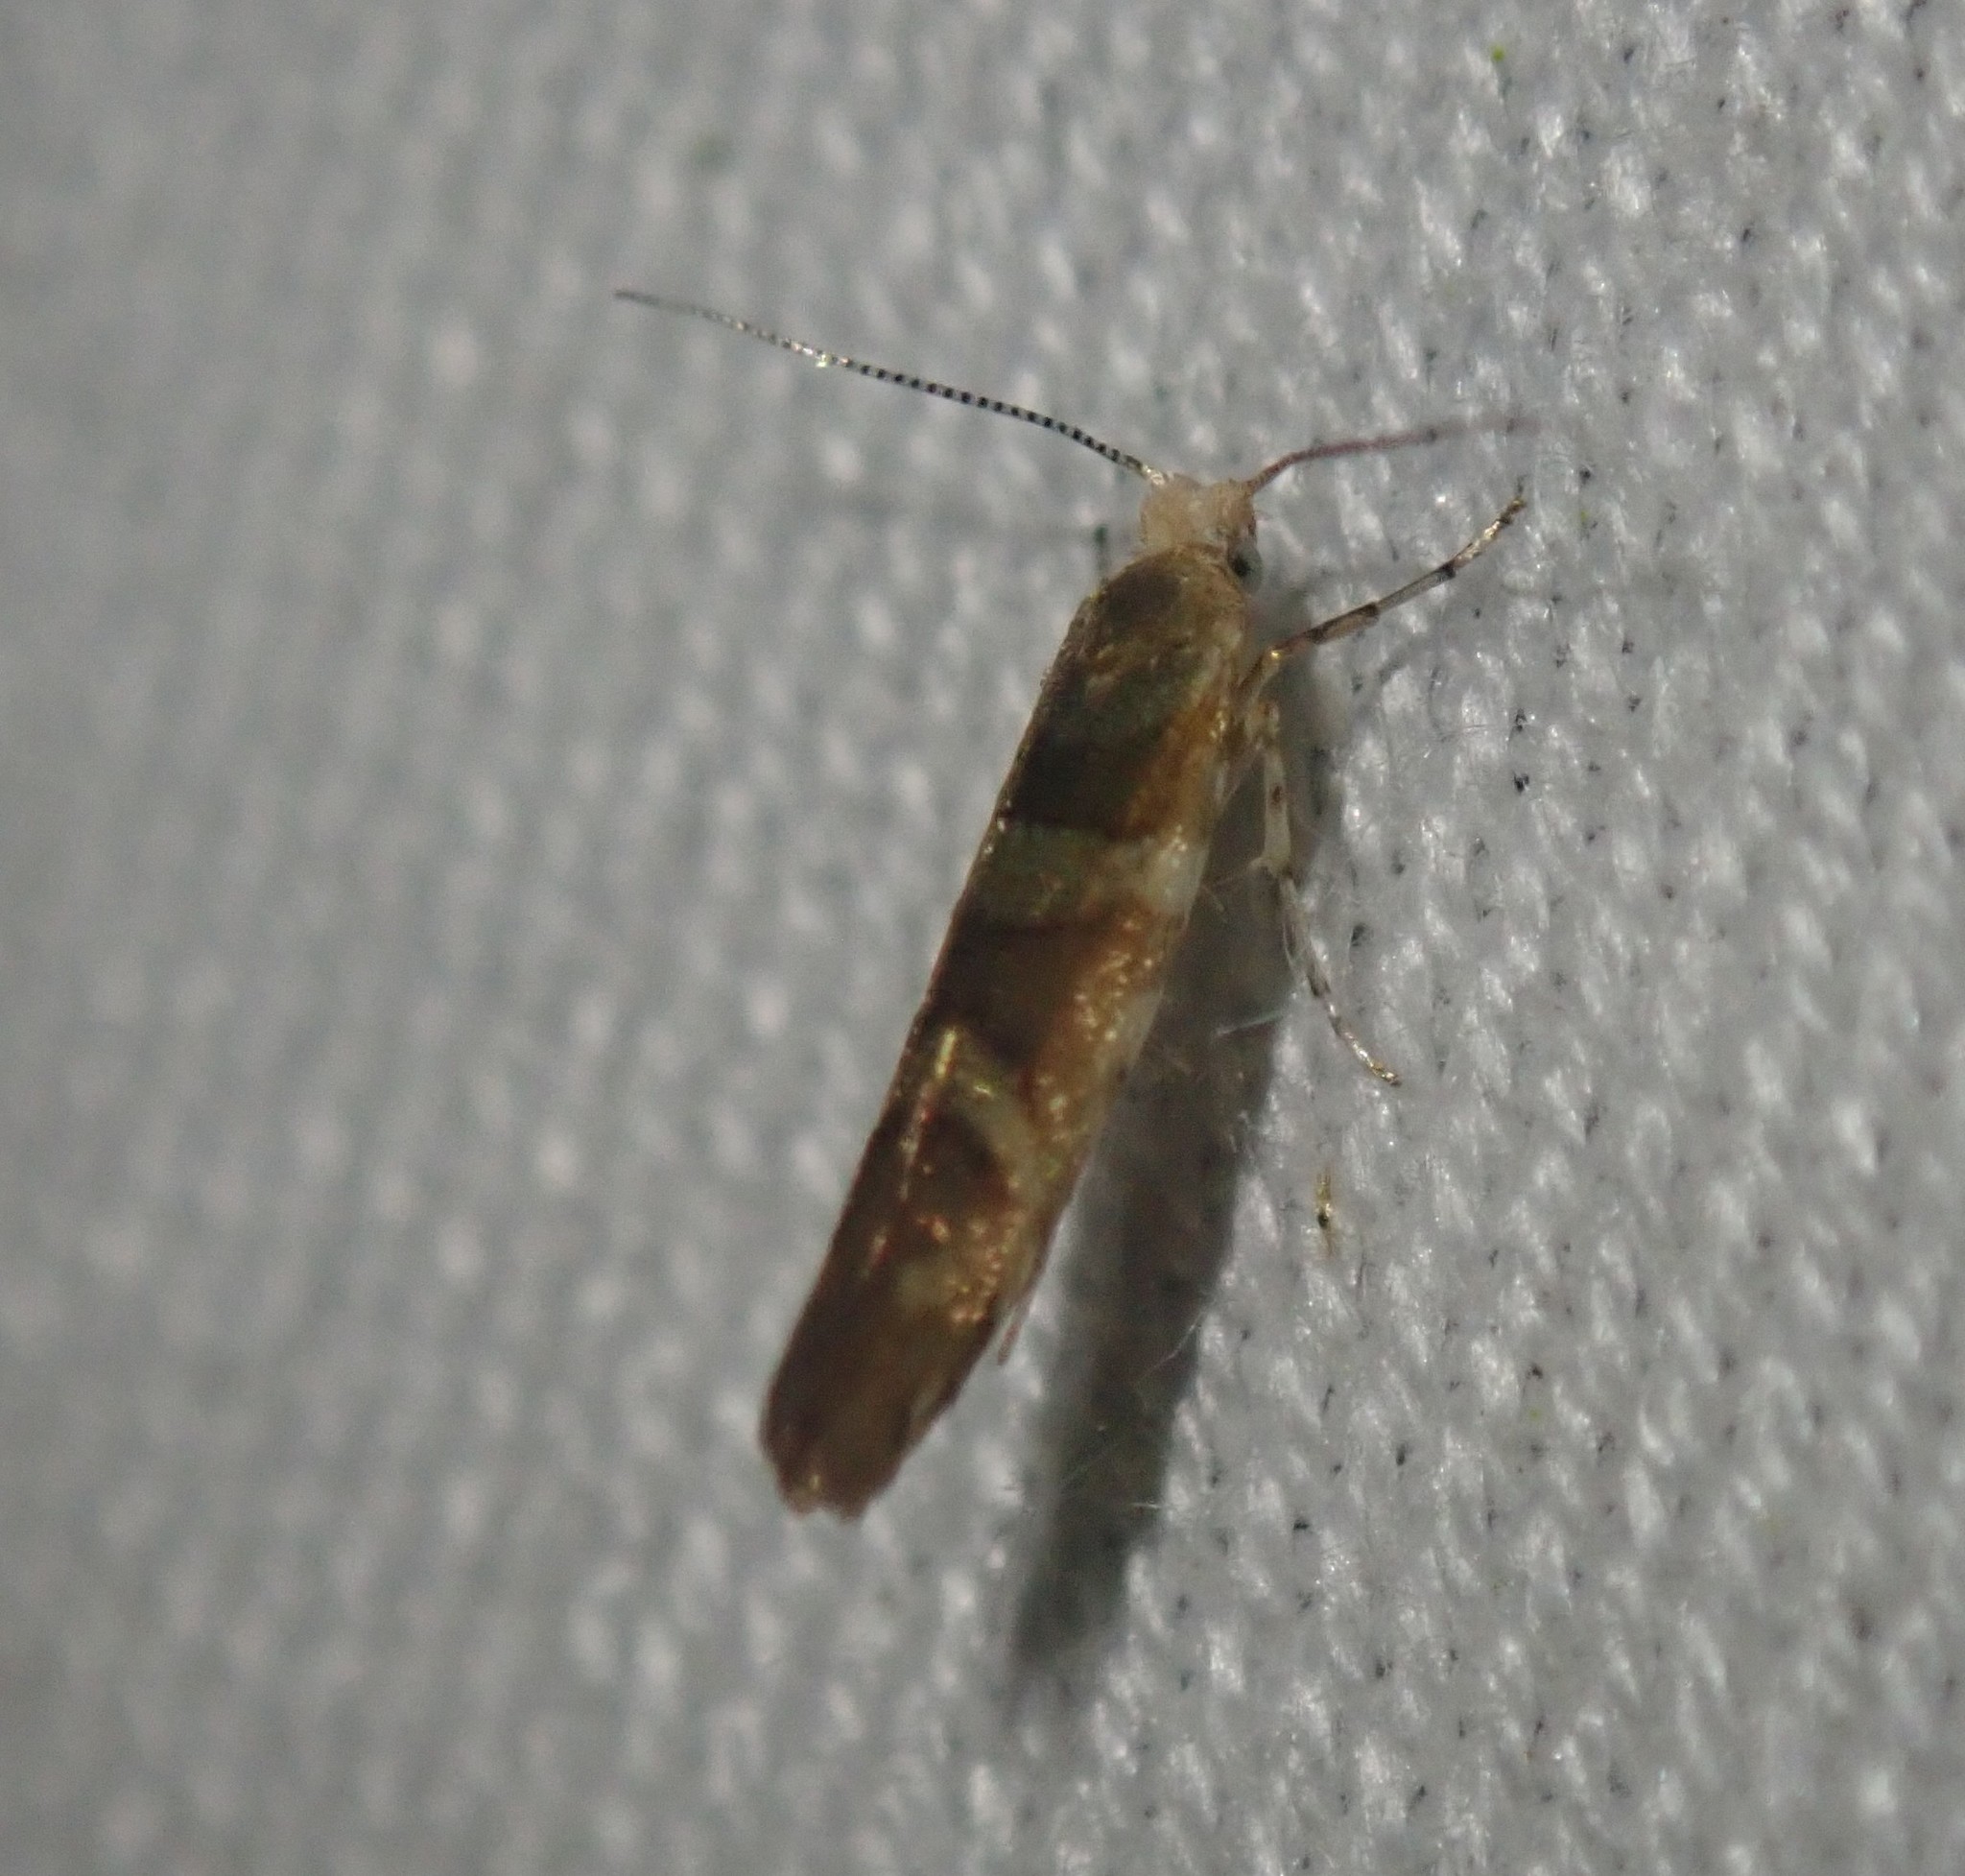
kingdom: Animalia
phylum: Arthropoda
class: Insecta
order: Lepidoptera
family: Argyresthiidae
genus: Argyresthia
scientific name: Argyresthia goedartella
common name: Golden argent
